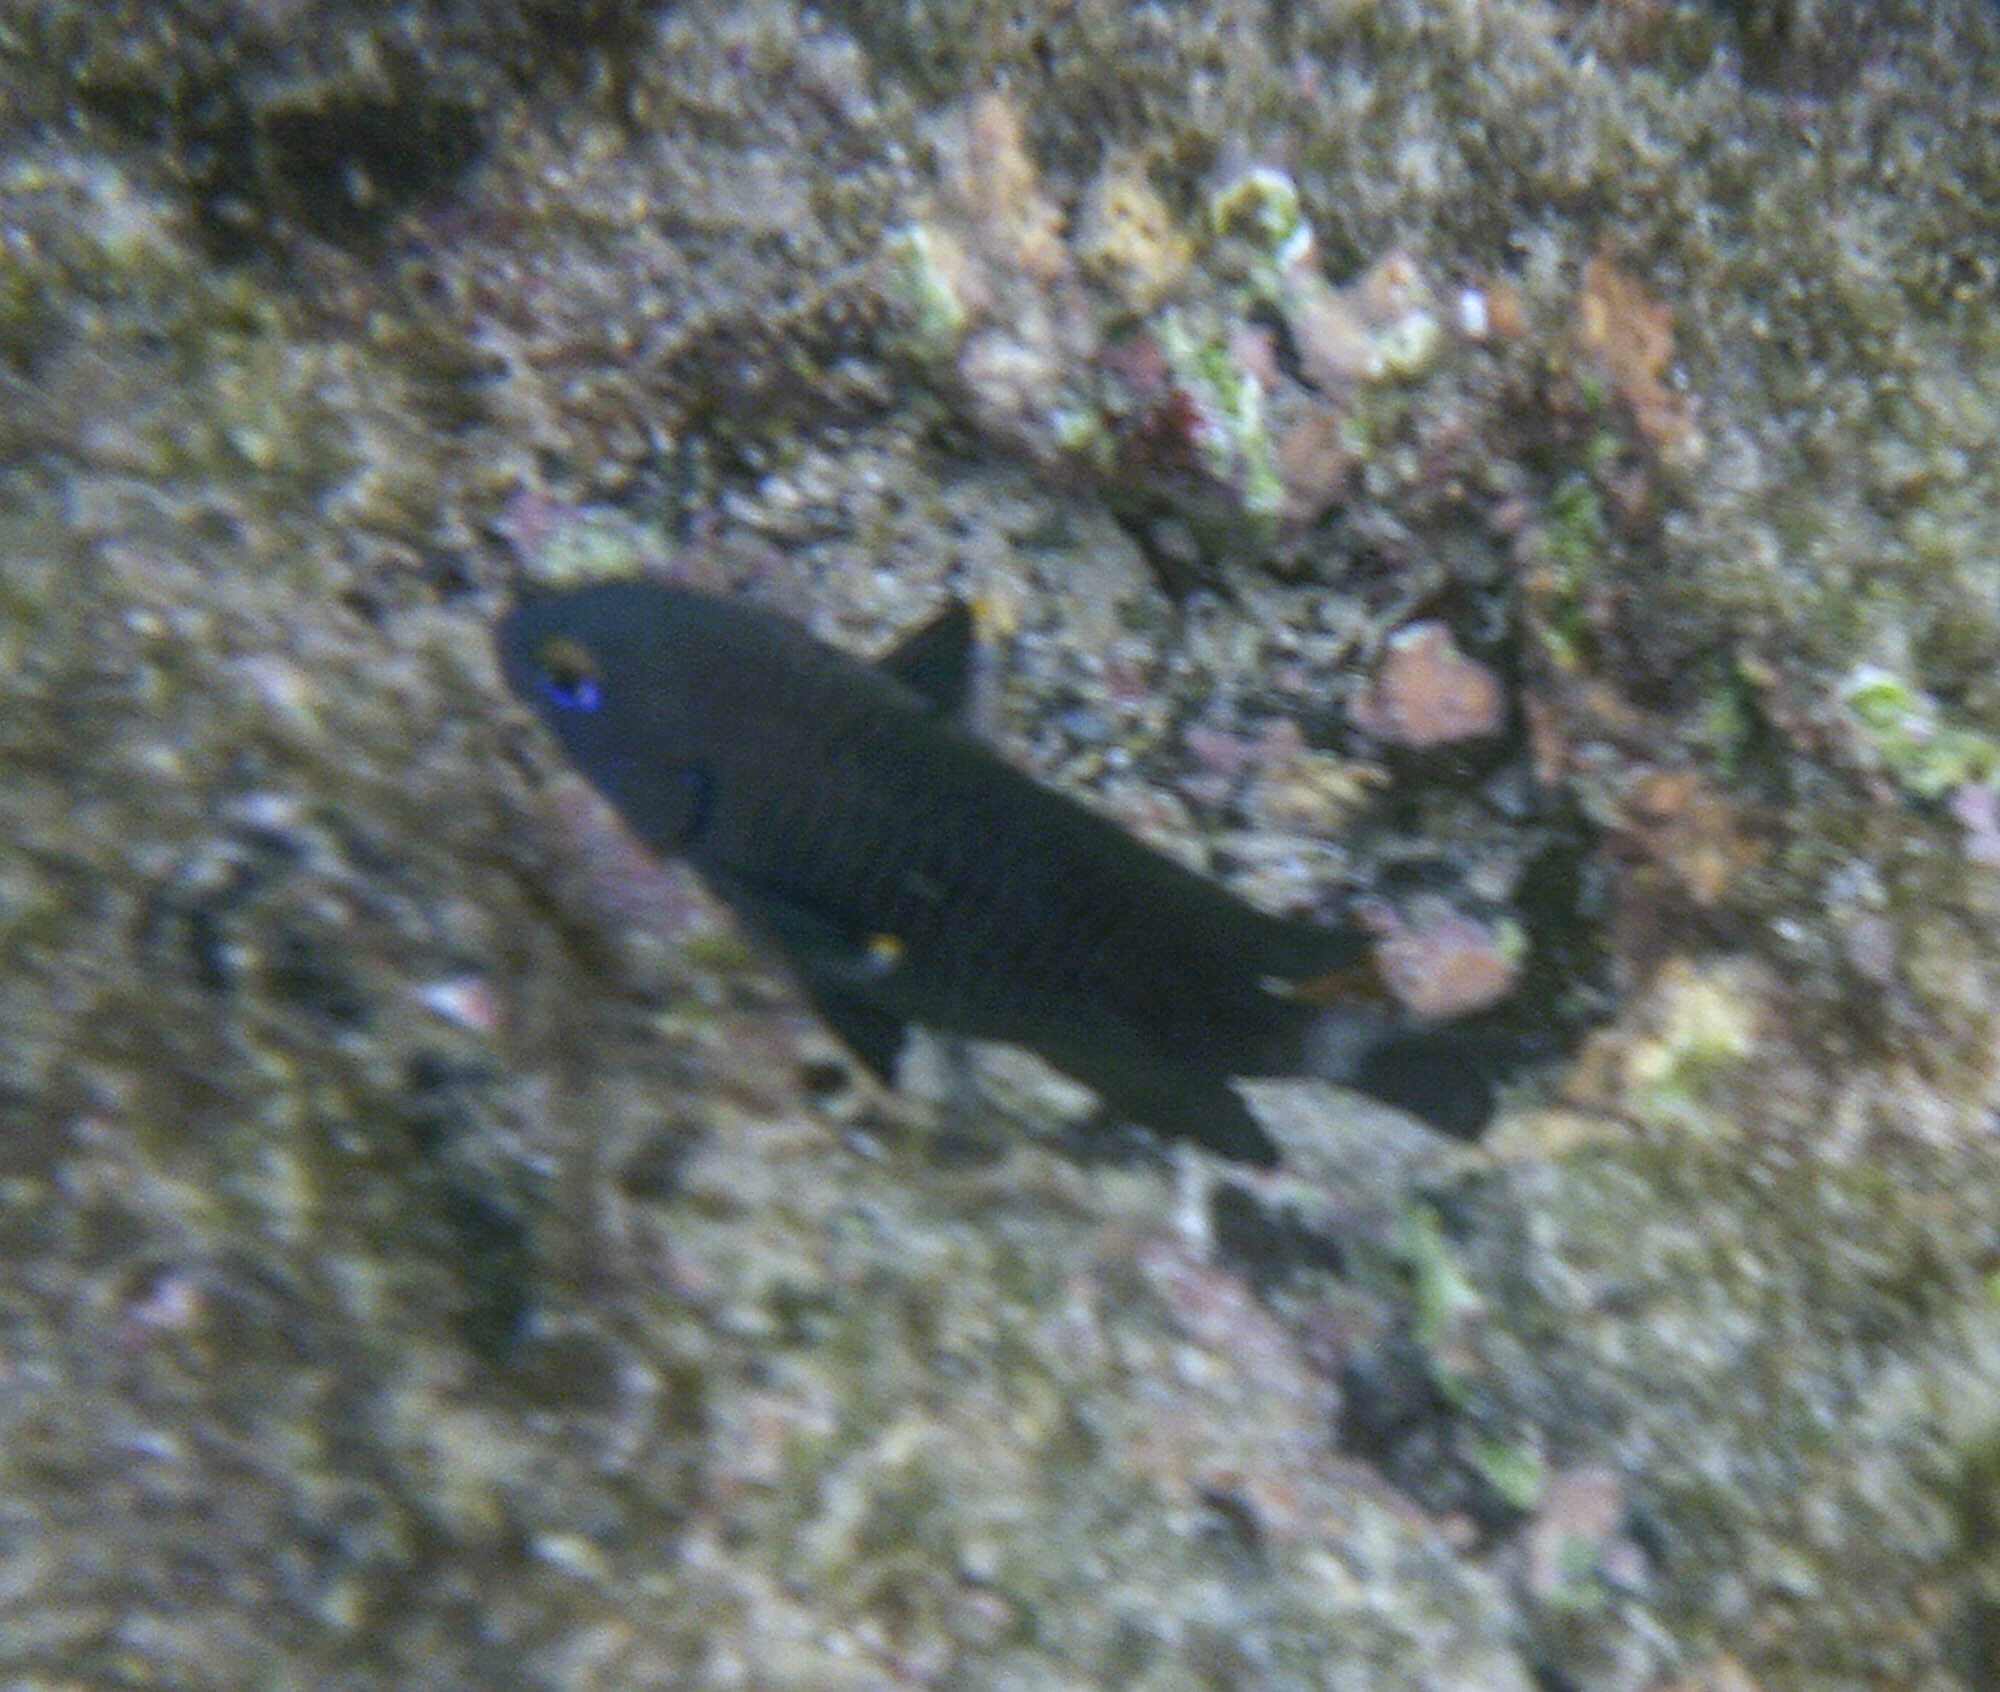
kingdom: Animalia
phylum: Chordata
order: Perciformes
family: Pomacentridae
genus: Stegastes
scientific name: Stegastes beebei
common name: Galapagos ringtail damselfish
